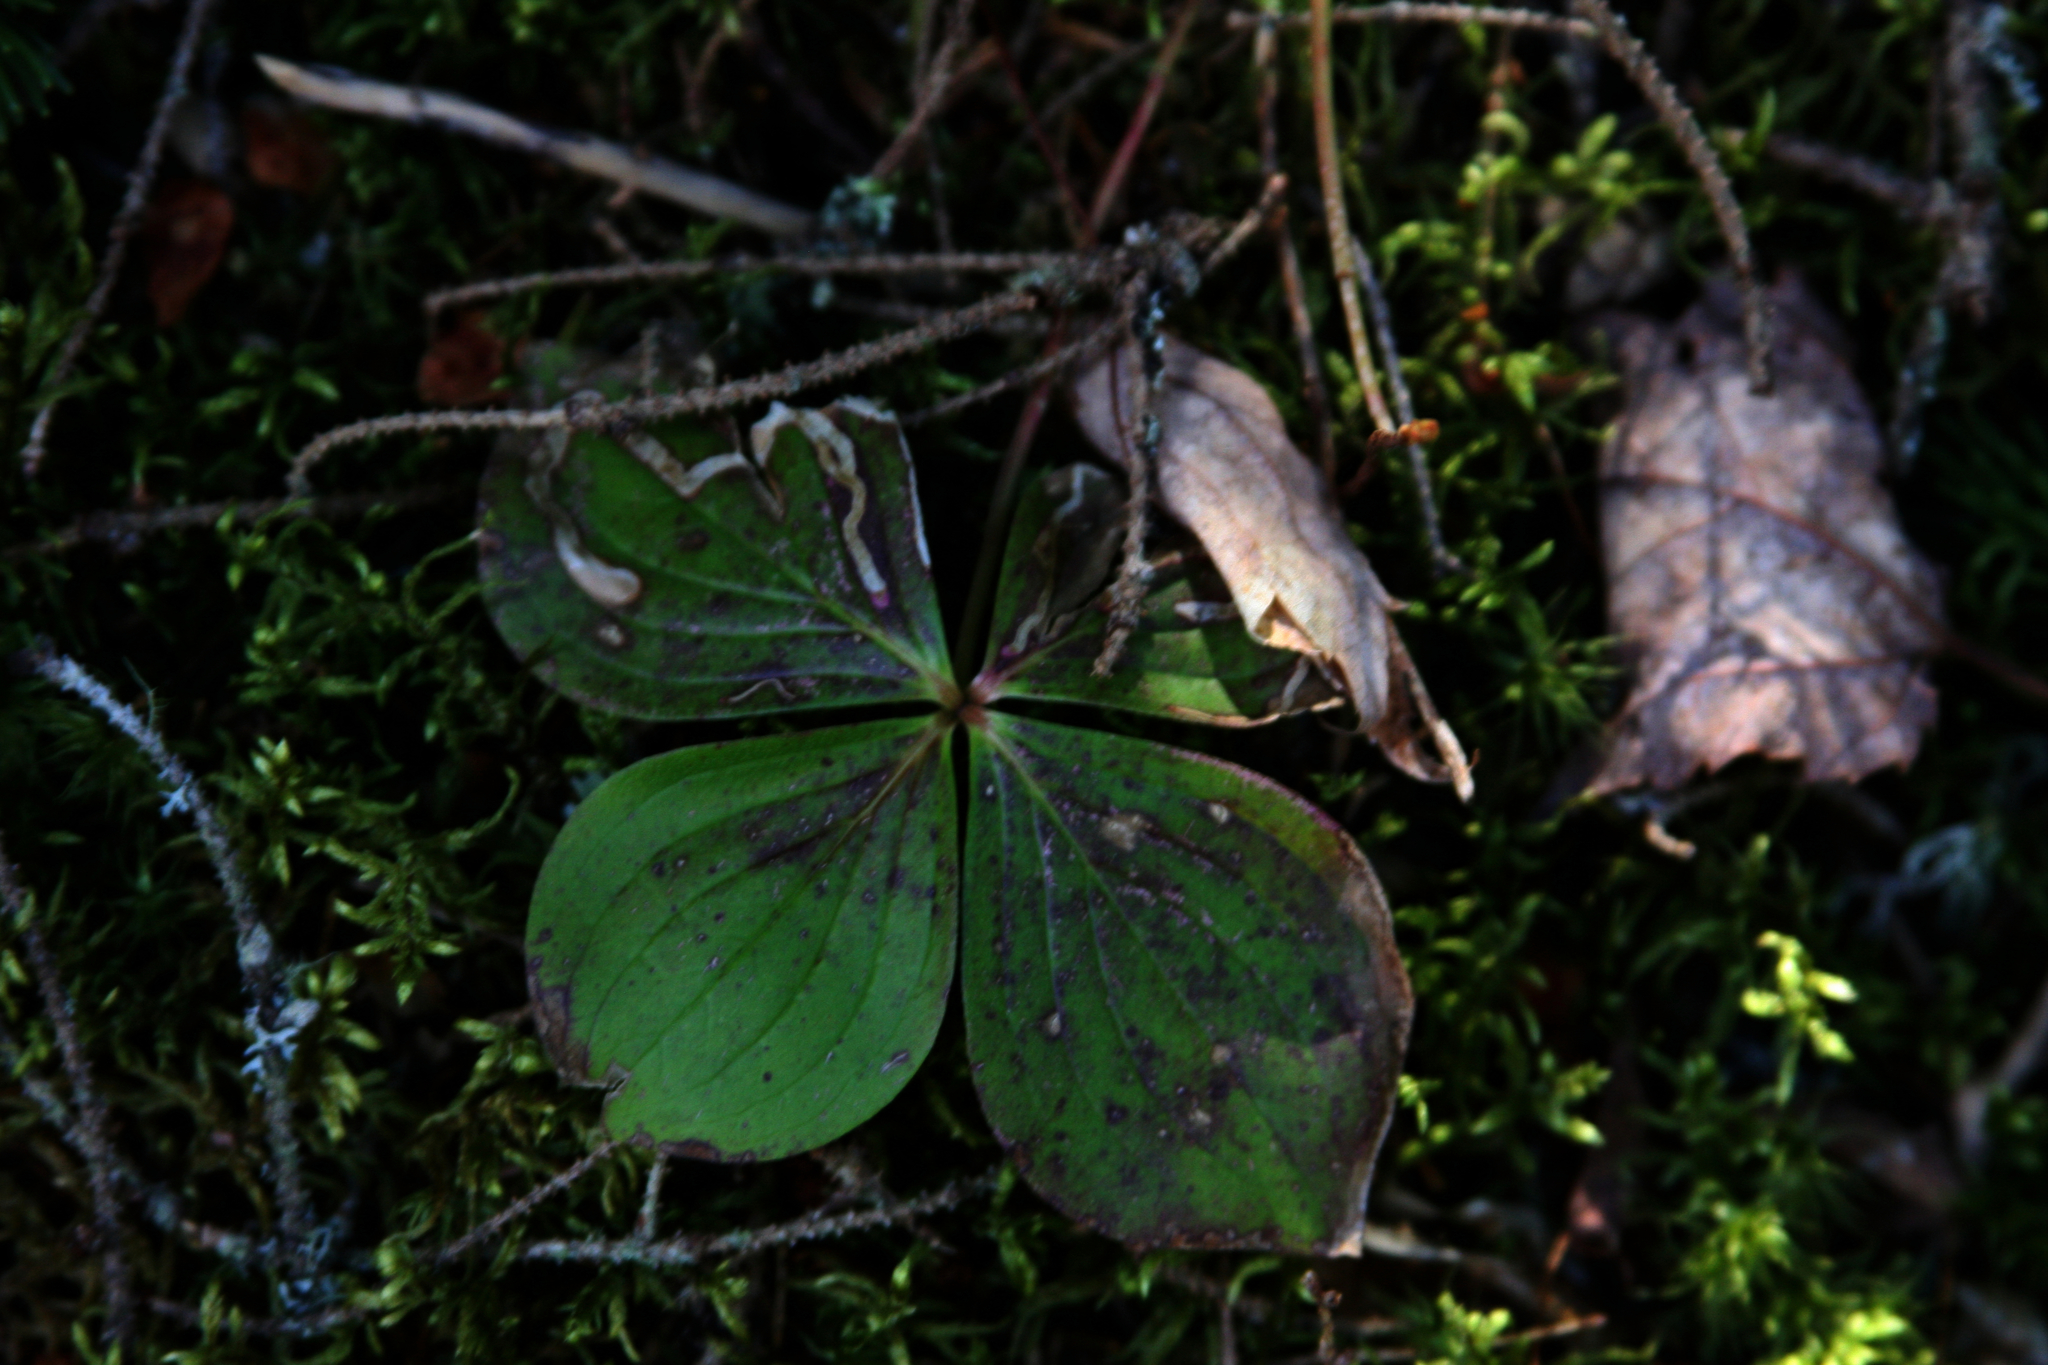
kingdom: Plantae
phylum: Tracheophyta
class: Magnoliopsida
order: Cornales
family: Cornaceae
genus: Cornus
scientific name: Cornus canadensis
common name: Creeping dogwood
